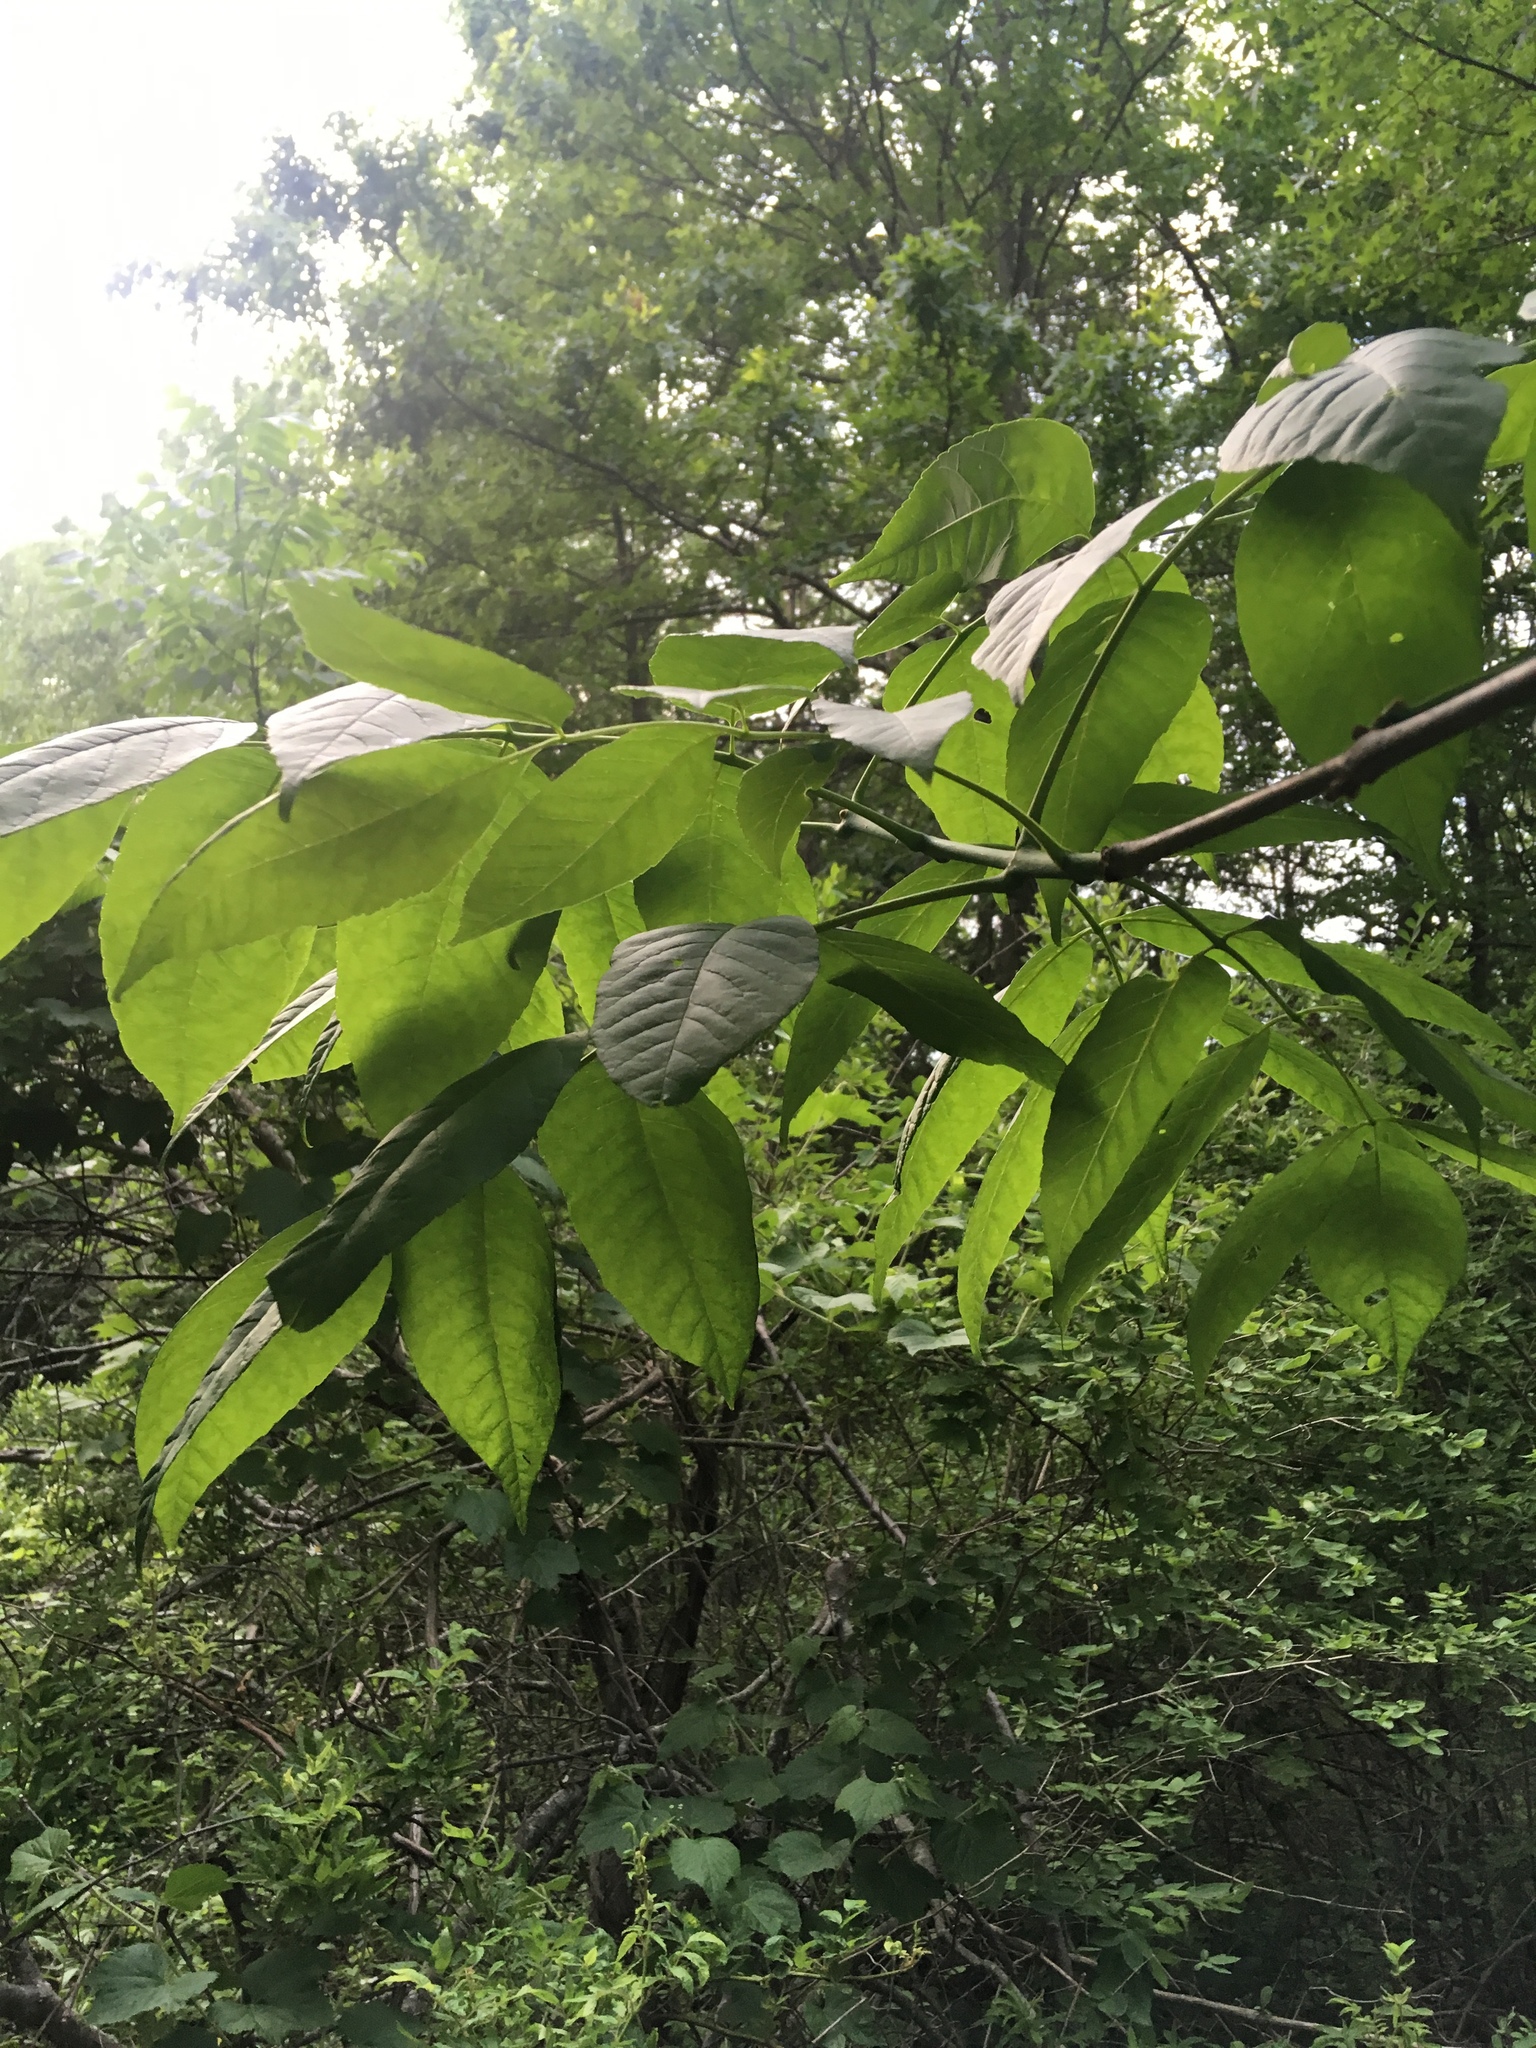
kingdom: Plantae
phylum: Tracheophyta
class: Magnoliopsida
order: Lamiales
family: Oleaceae
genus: Fraxinus
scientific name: Fraxinus pennsylvanica
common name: Green ash
